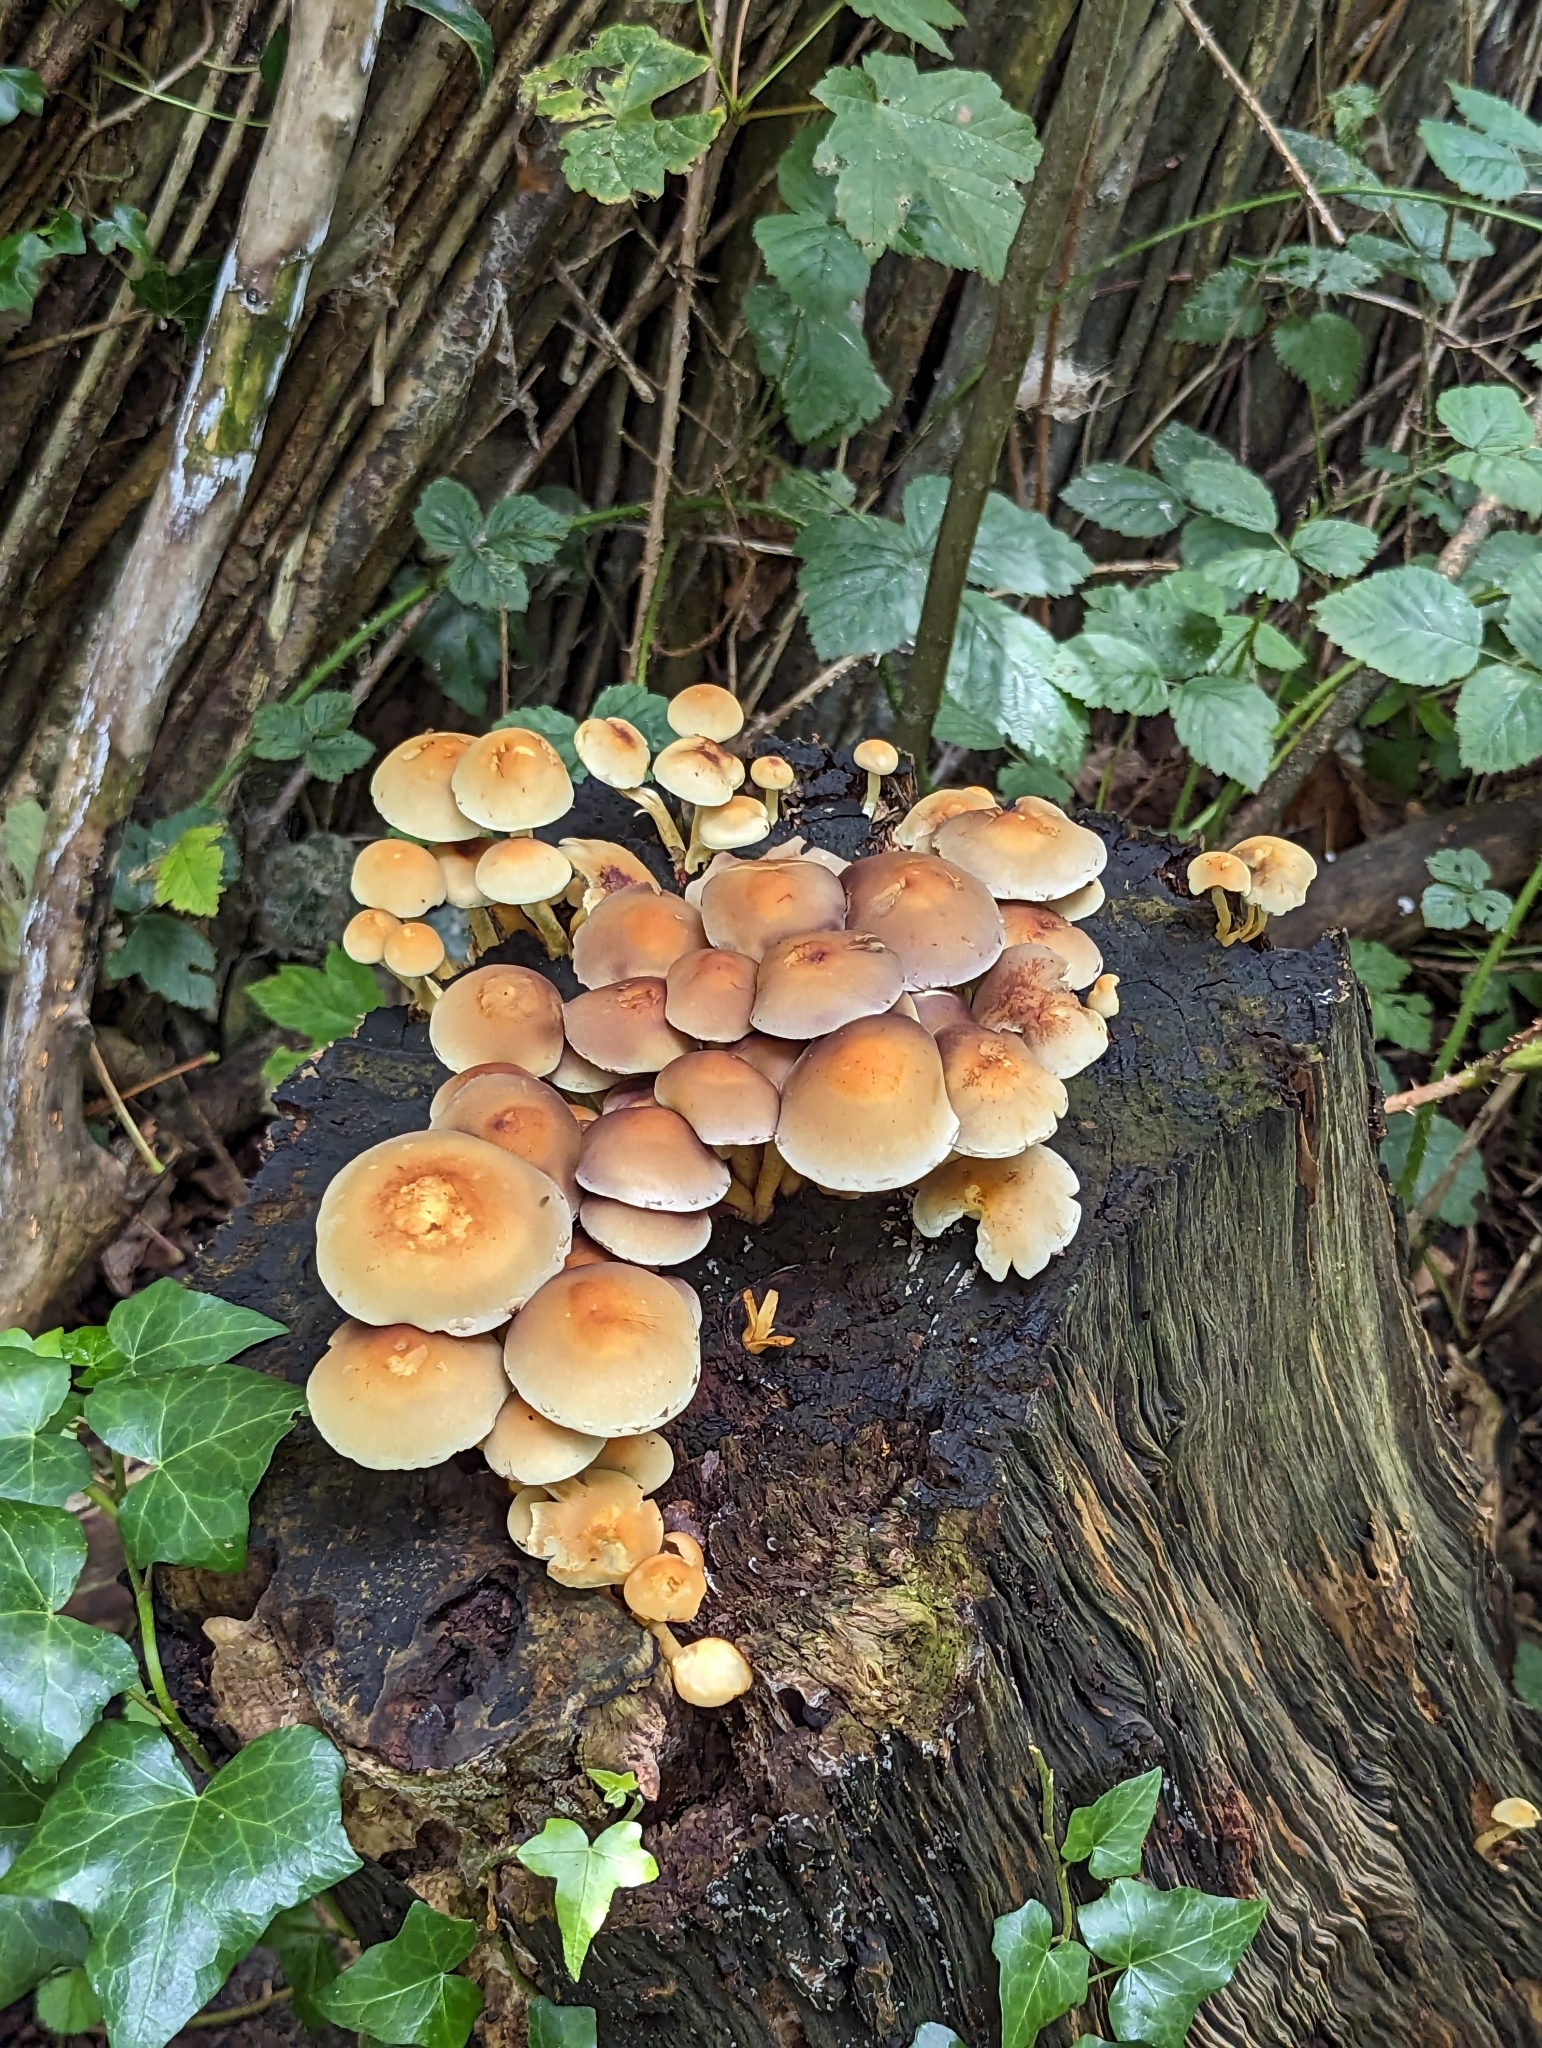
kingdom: Fungi
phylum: Basidiomycota
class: Agaricomycetes
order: Agaricales
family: Strophariaceae
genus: Hypholoma
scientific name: Hypholoma fasciculare
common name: Sulphur tuft
